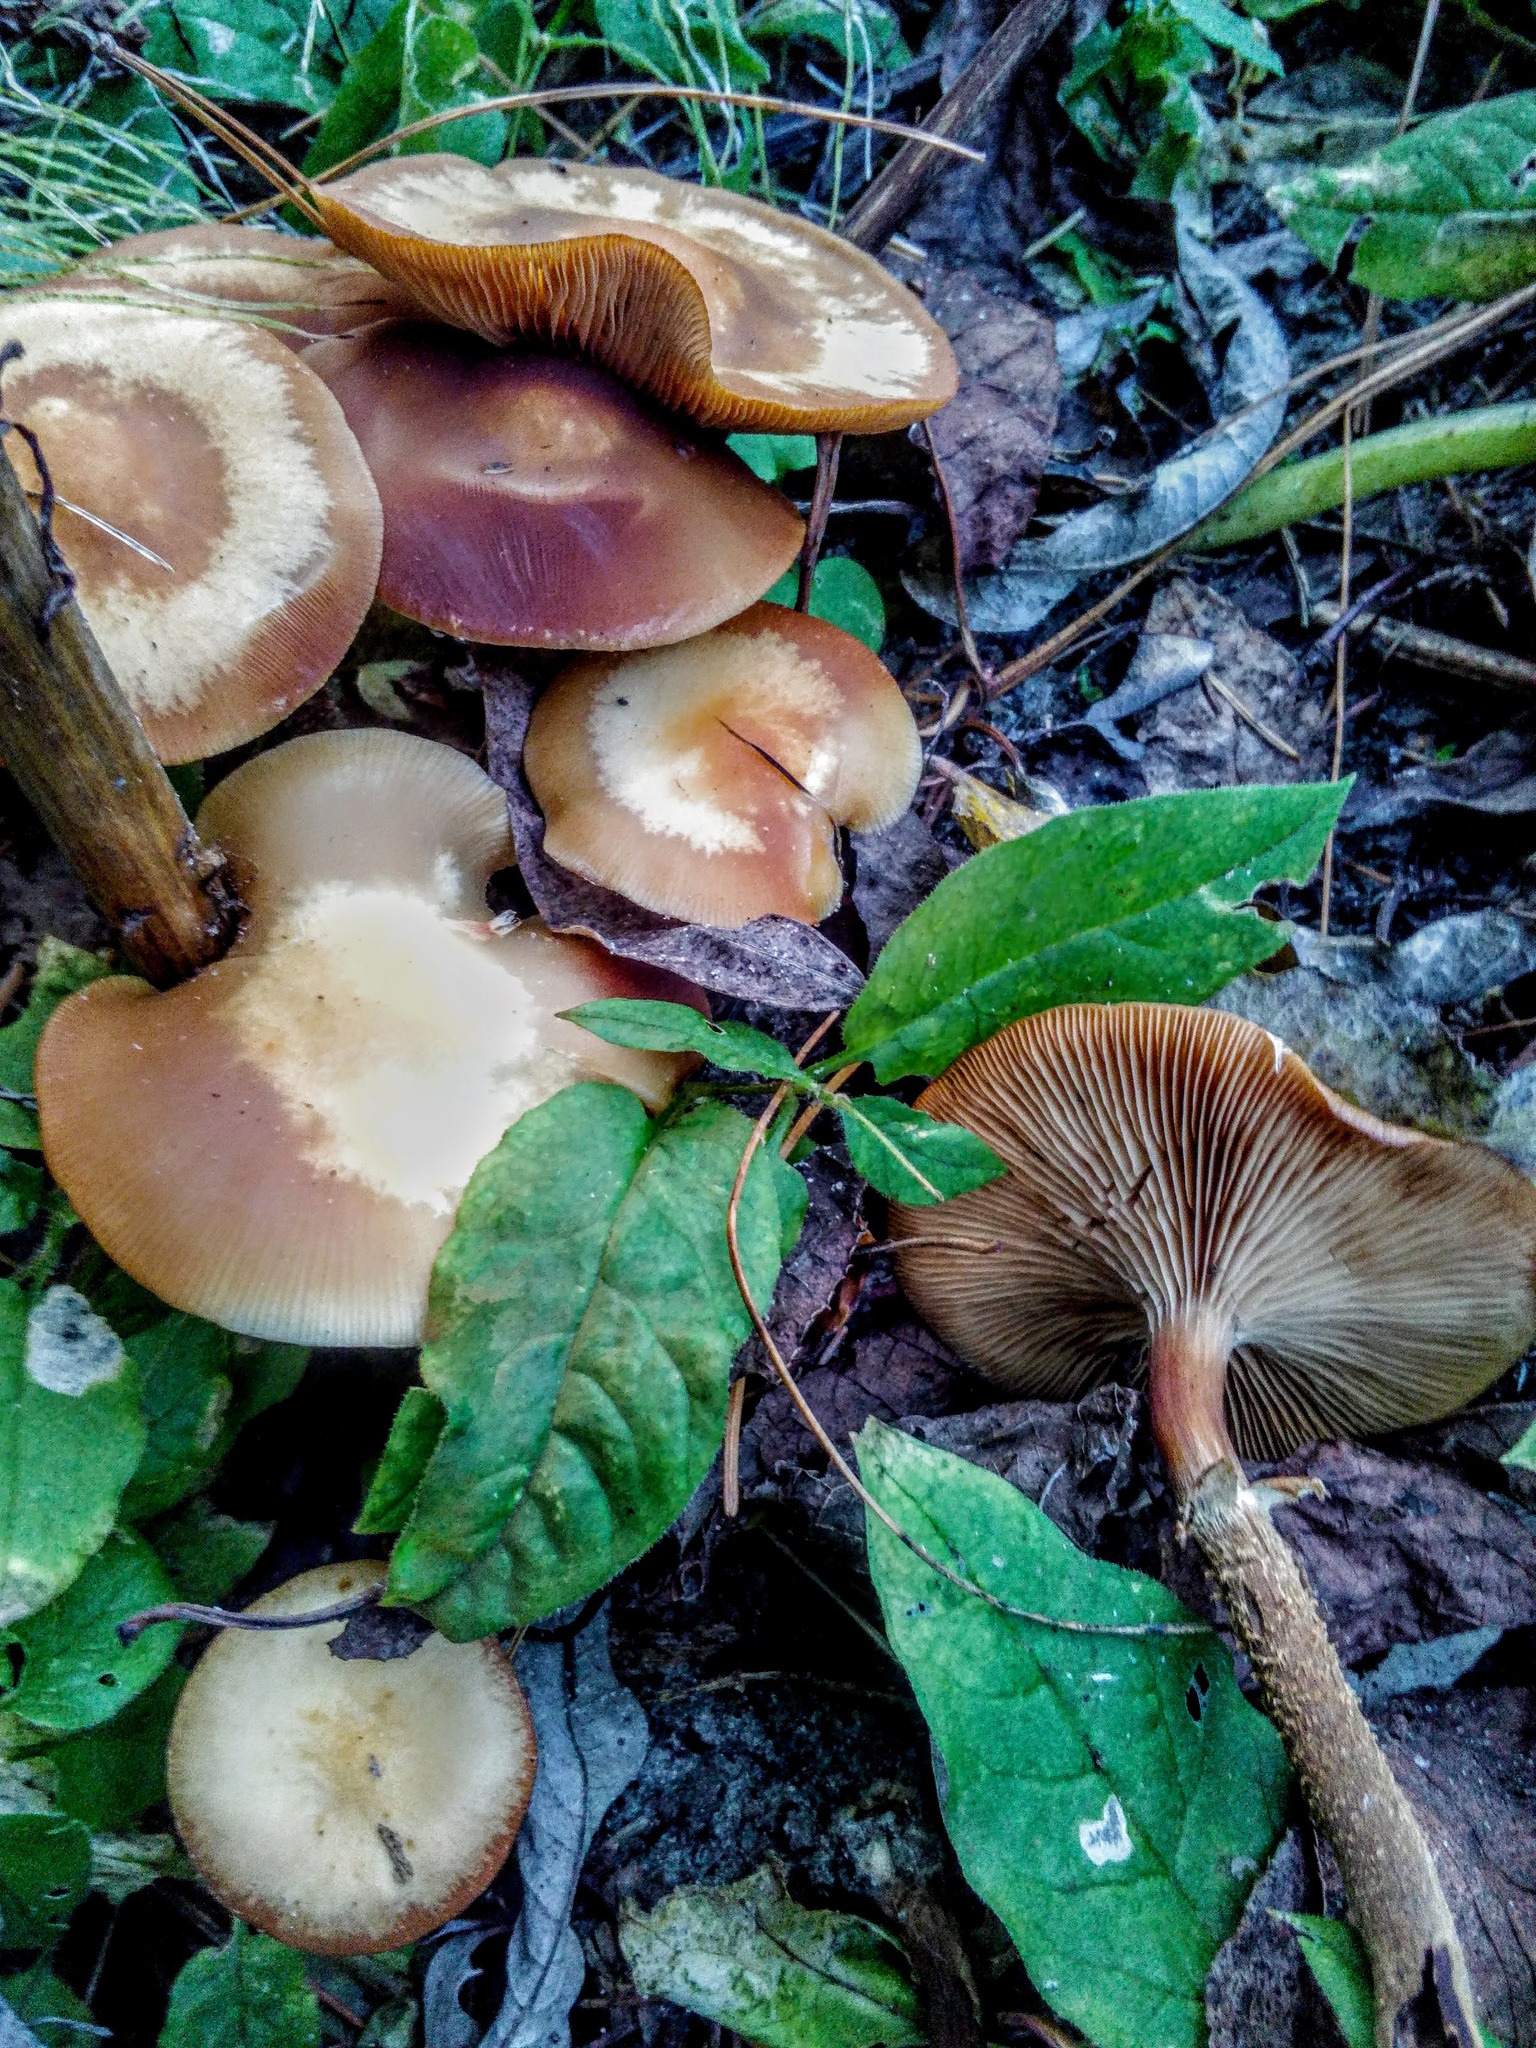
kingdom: Fungi
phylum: Basidiomycota
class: Agaricomycetes
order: Agaricales
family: Strophariaceae
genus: Kuehneromyces
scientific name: Kuehneromyces mutabilis
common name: Sheathed woodtuft
